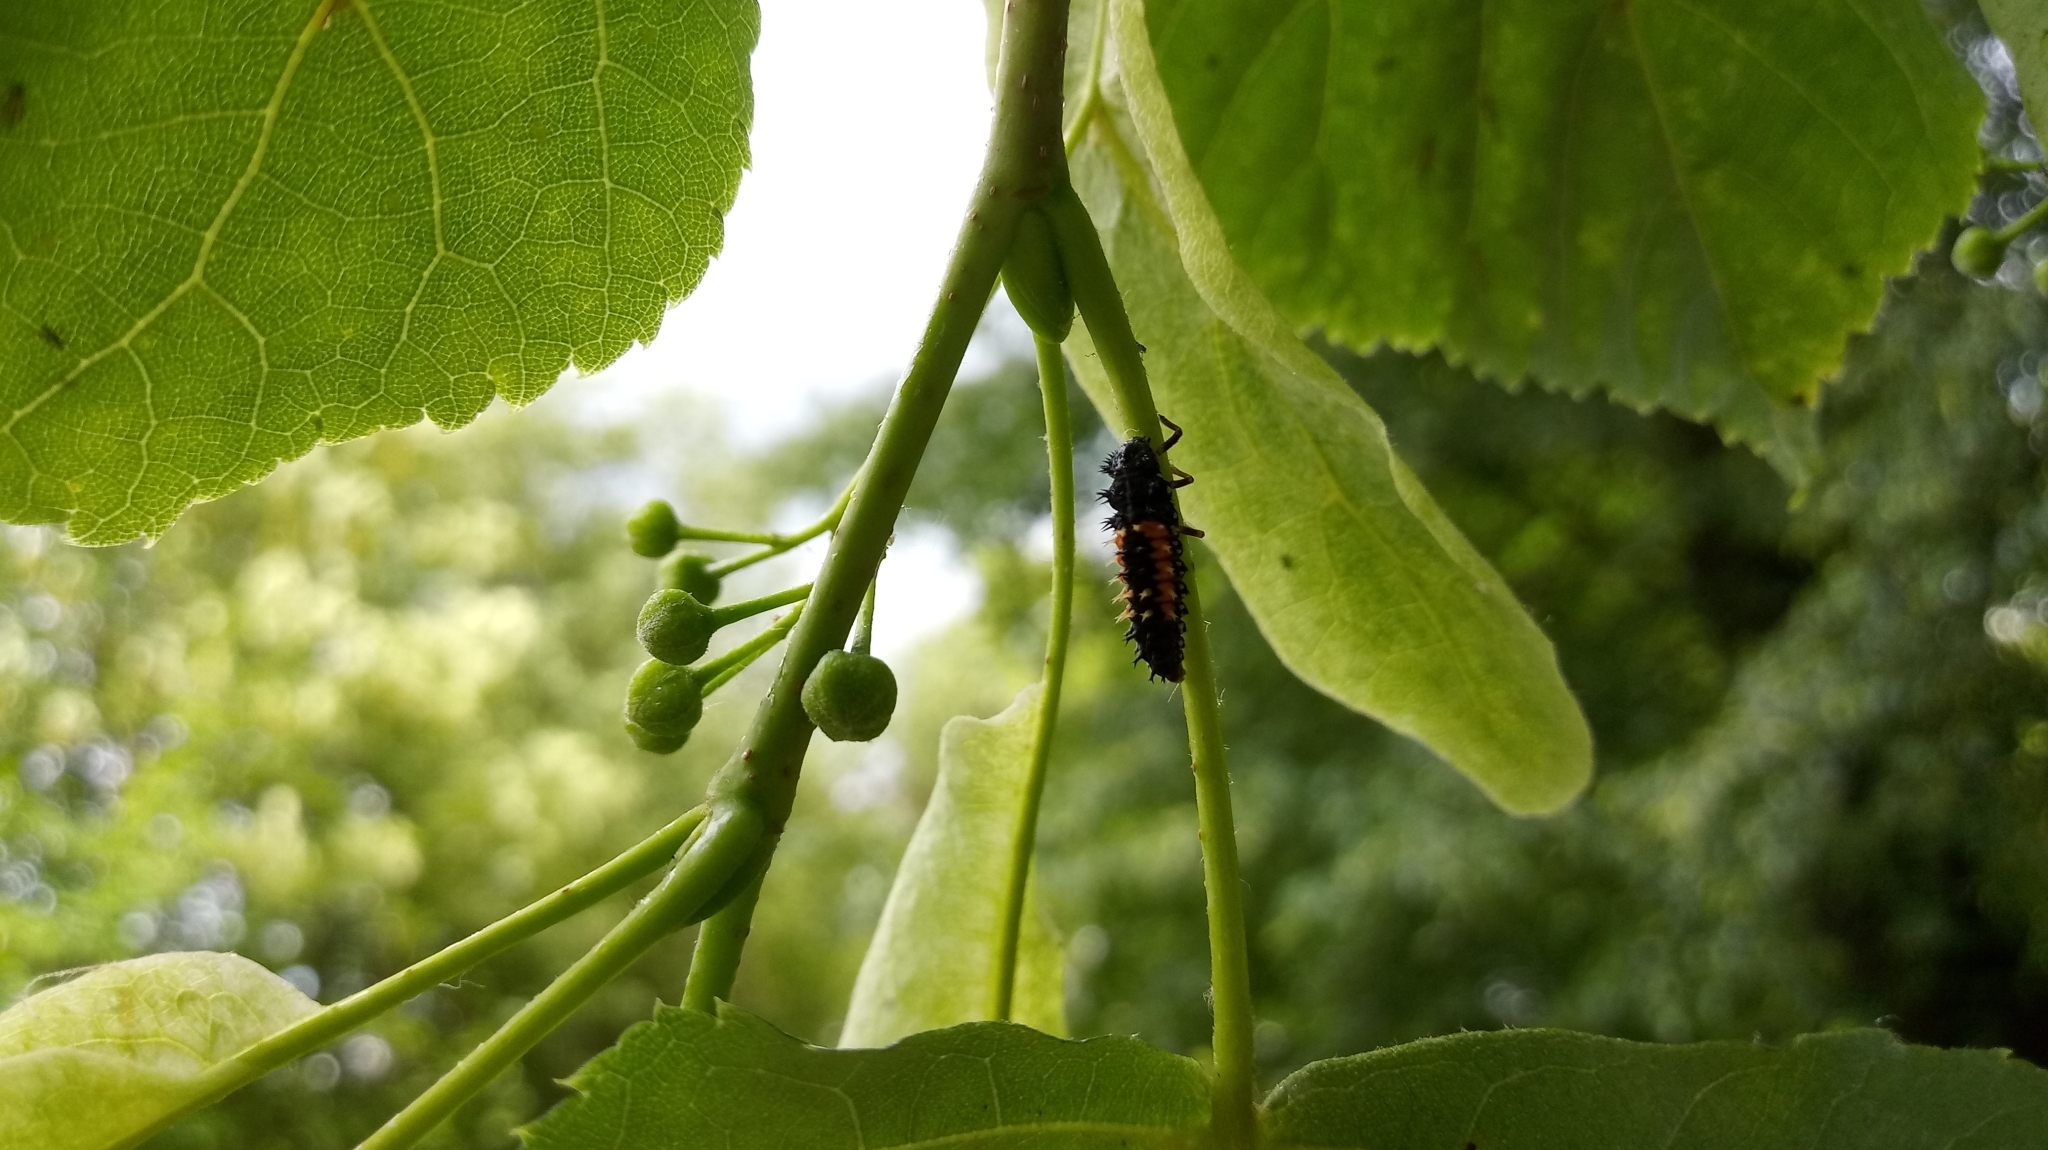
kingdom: Animalia
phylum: Arthropoda
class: Insecta
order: Coleoptera
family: Coccinellidae
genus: Harmonia
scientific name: Harmonia axyridis
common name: Harlequin ladybird
